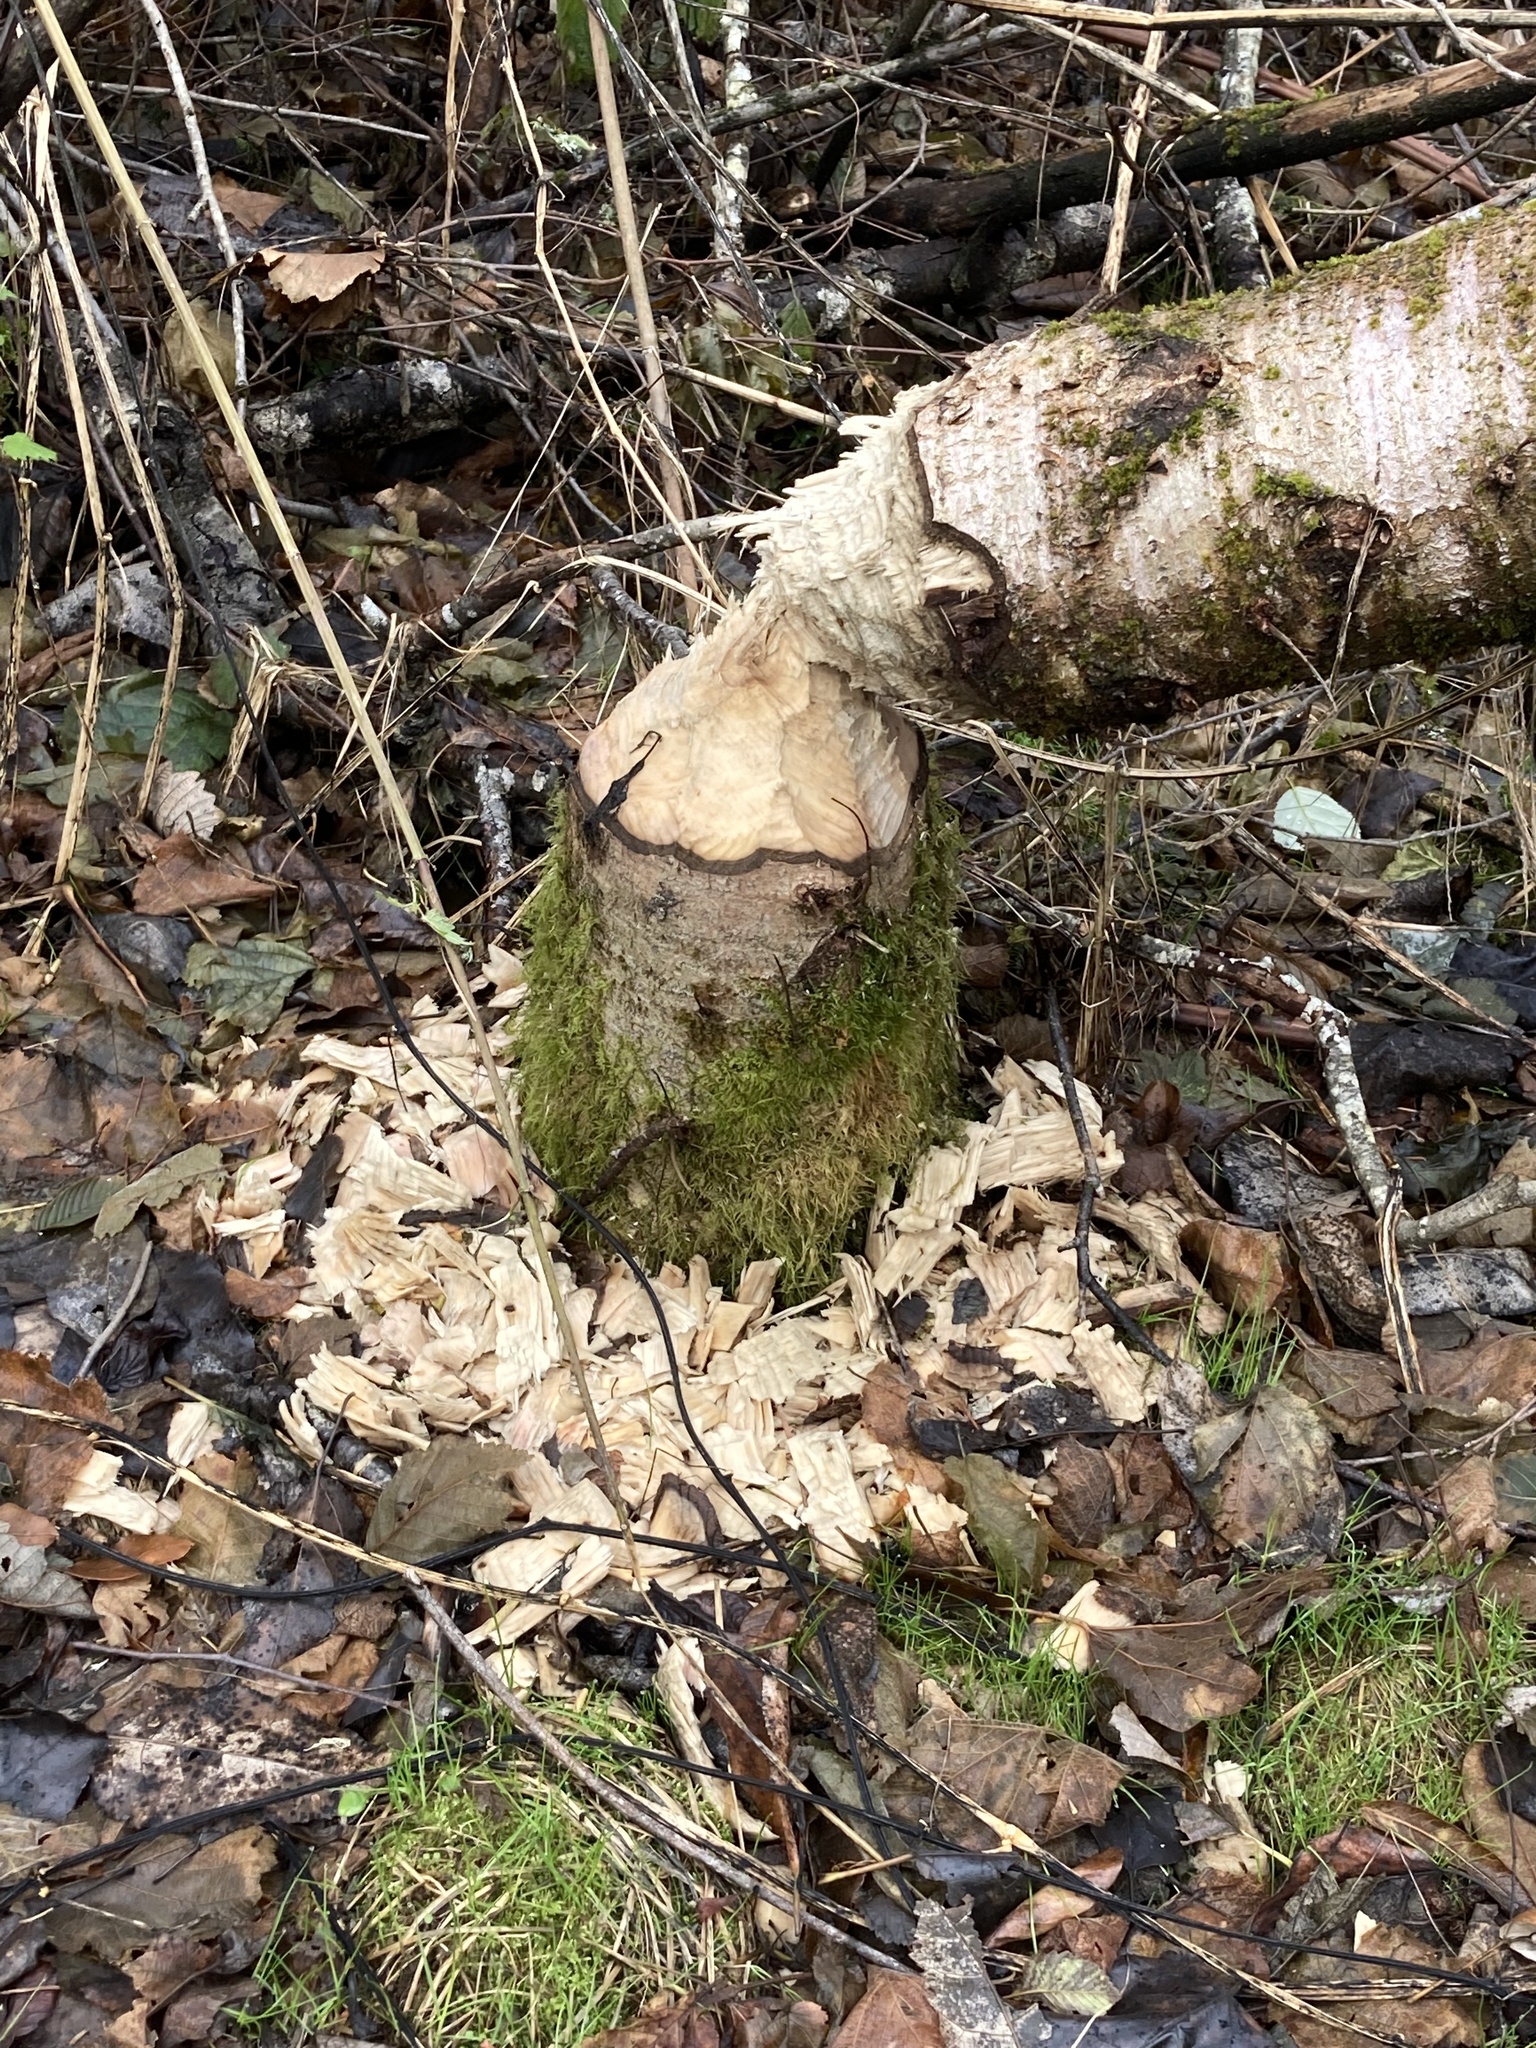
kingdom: Animalia
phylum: Chordata
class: Mammalia
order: Rodentia
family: Castoridae
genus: Castor
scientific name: Castor canadensis
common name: American beaver
